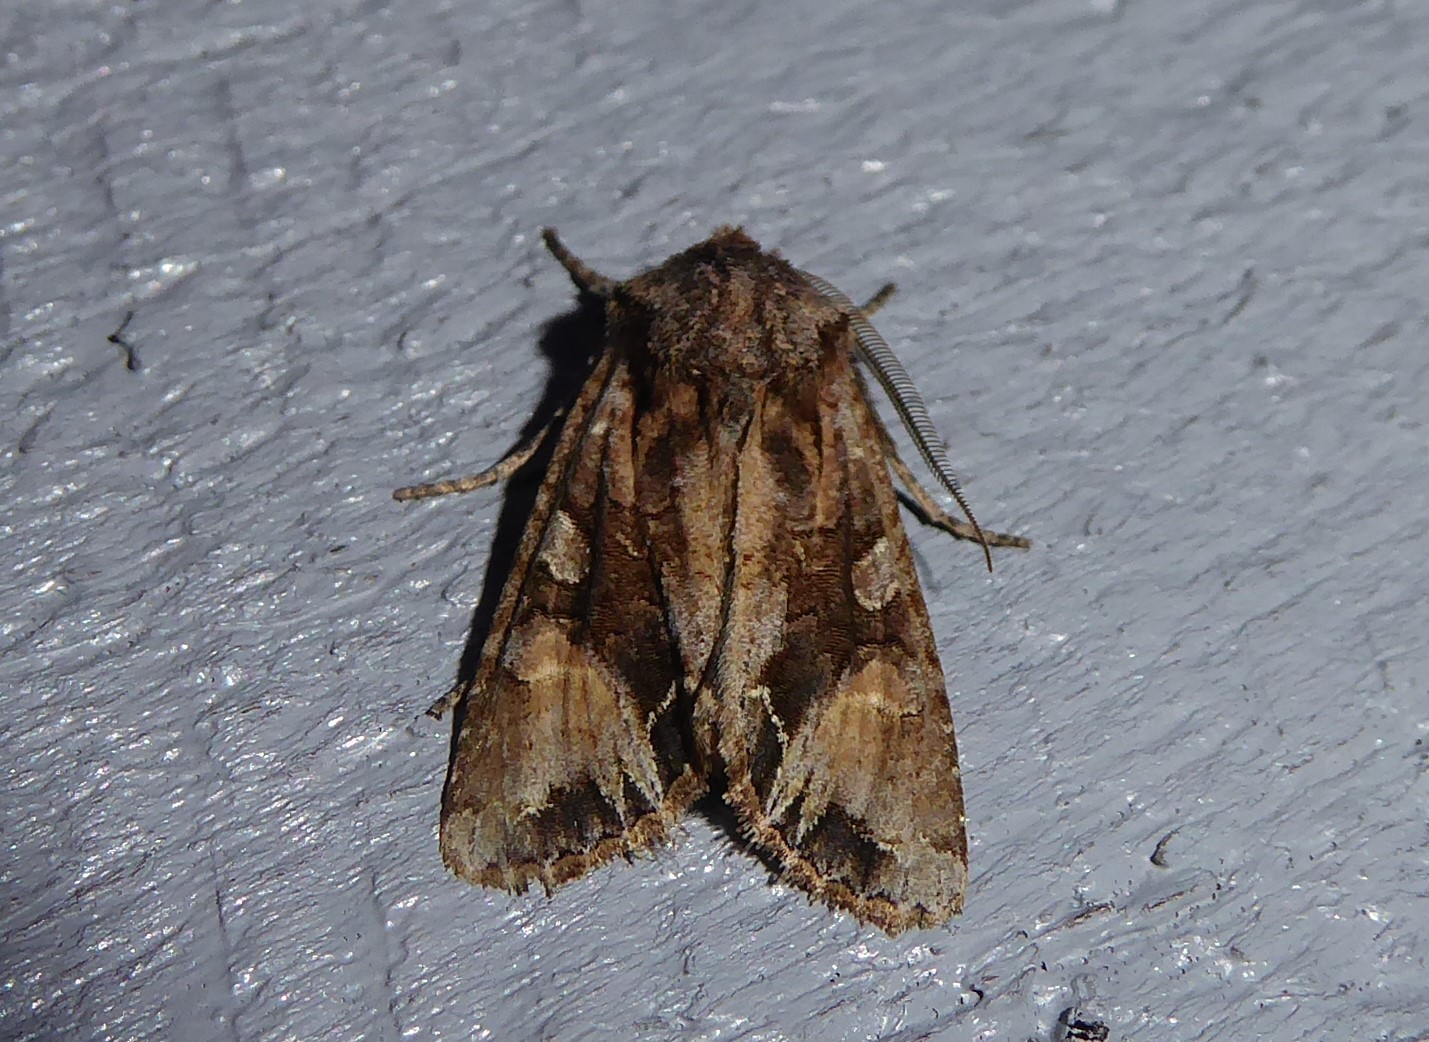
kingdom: Animalia
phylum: Arthropoda
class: Insecta
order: Lepidoptera
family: Noctuidae
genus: Ichneutica
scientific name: Ichneutica
